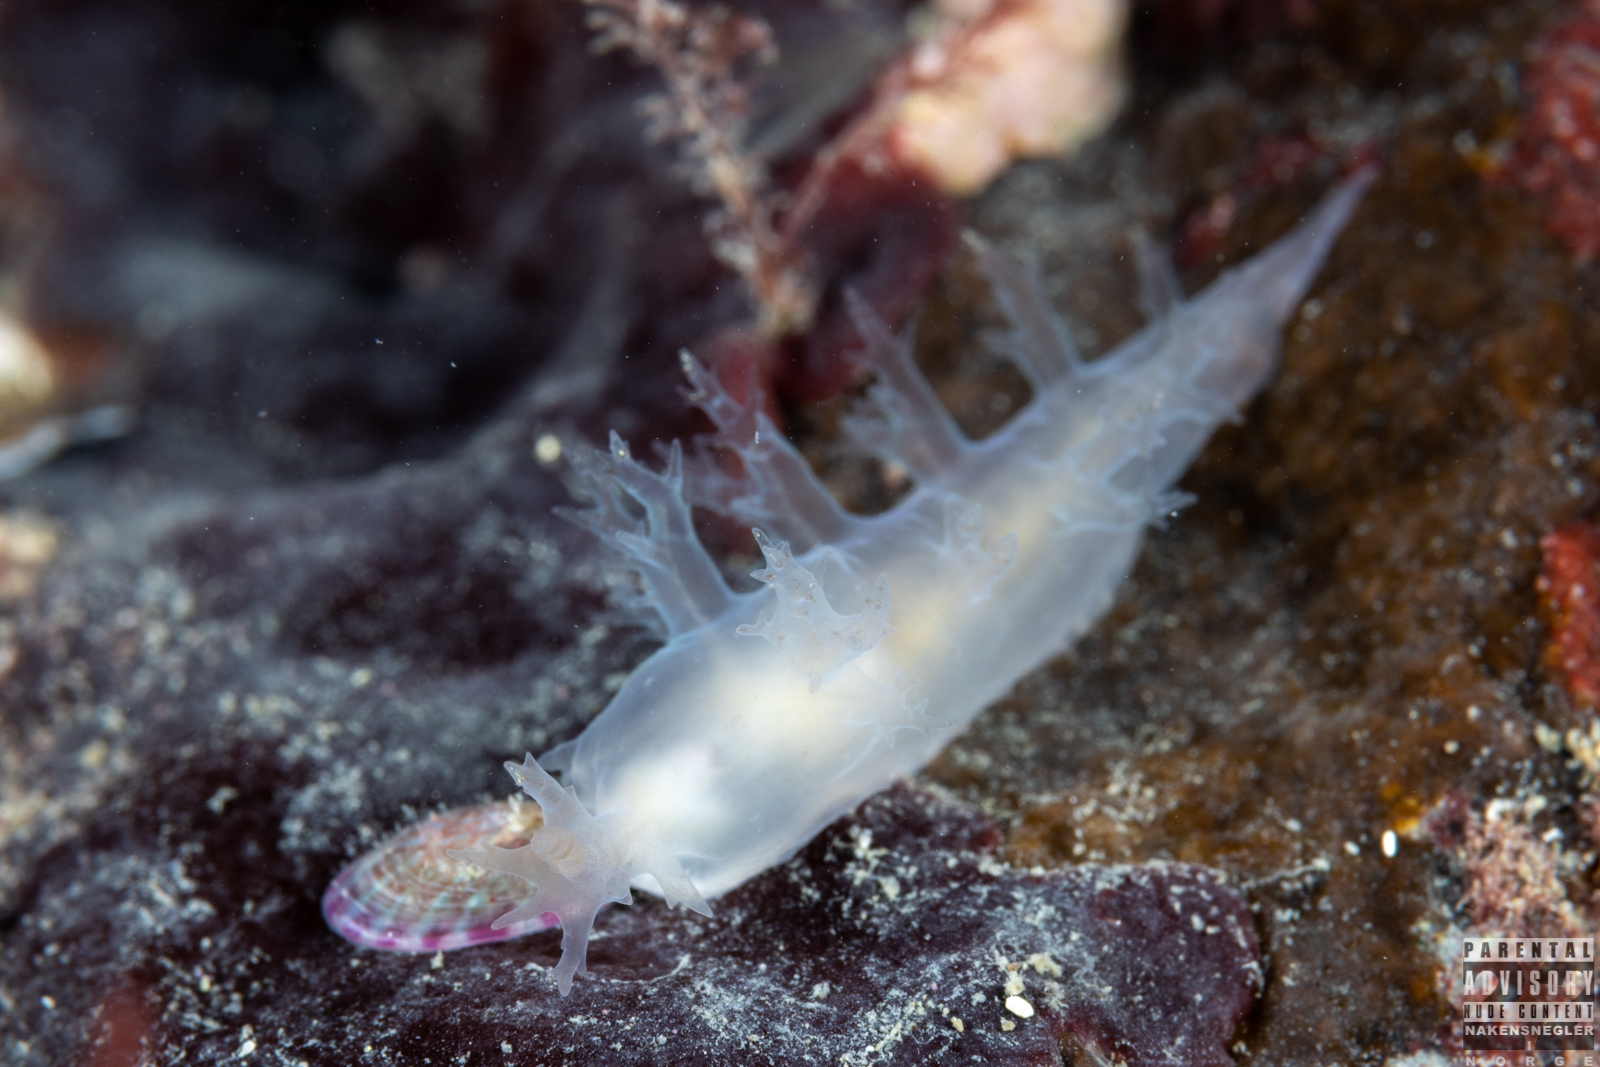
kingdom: Animalia
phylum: Mollusca
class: Gastropoda
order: Nudibranchia
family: Dendronotidae
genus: Dendronotus
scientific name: Dendronotus lacteus
